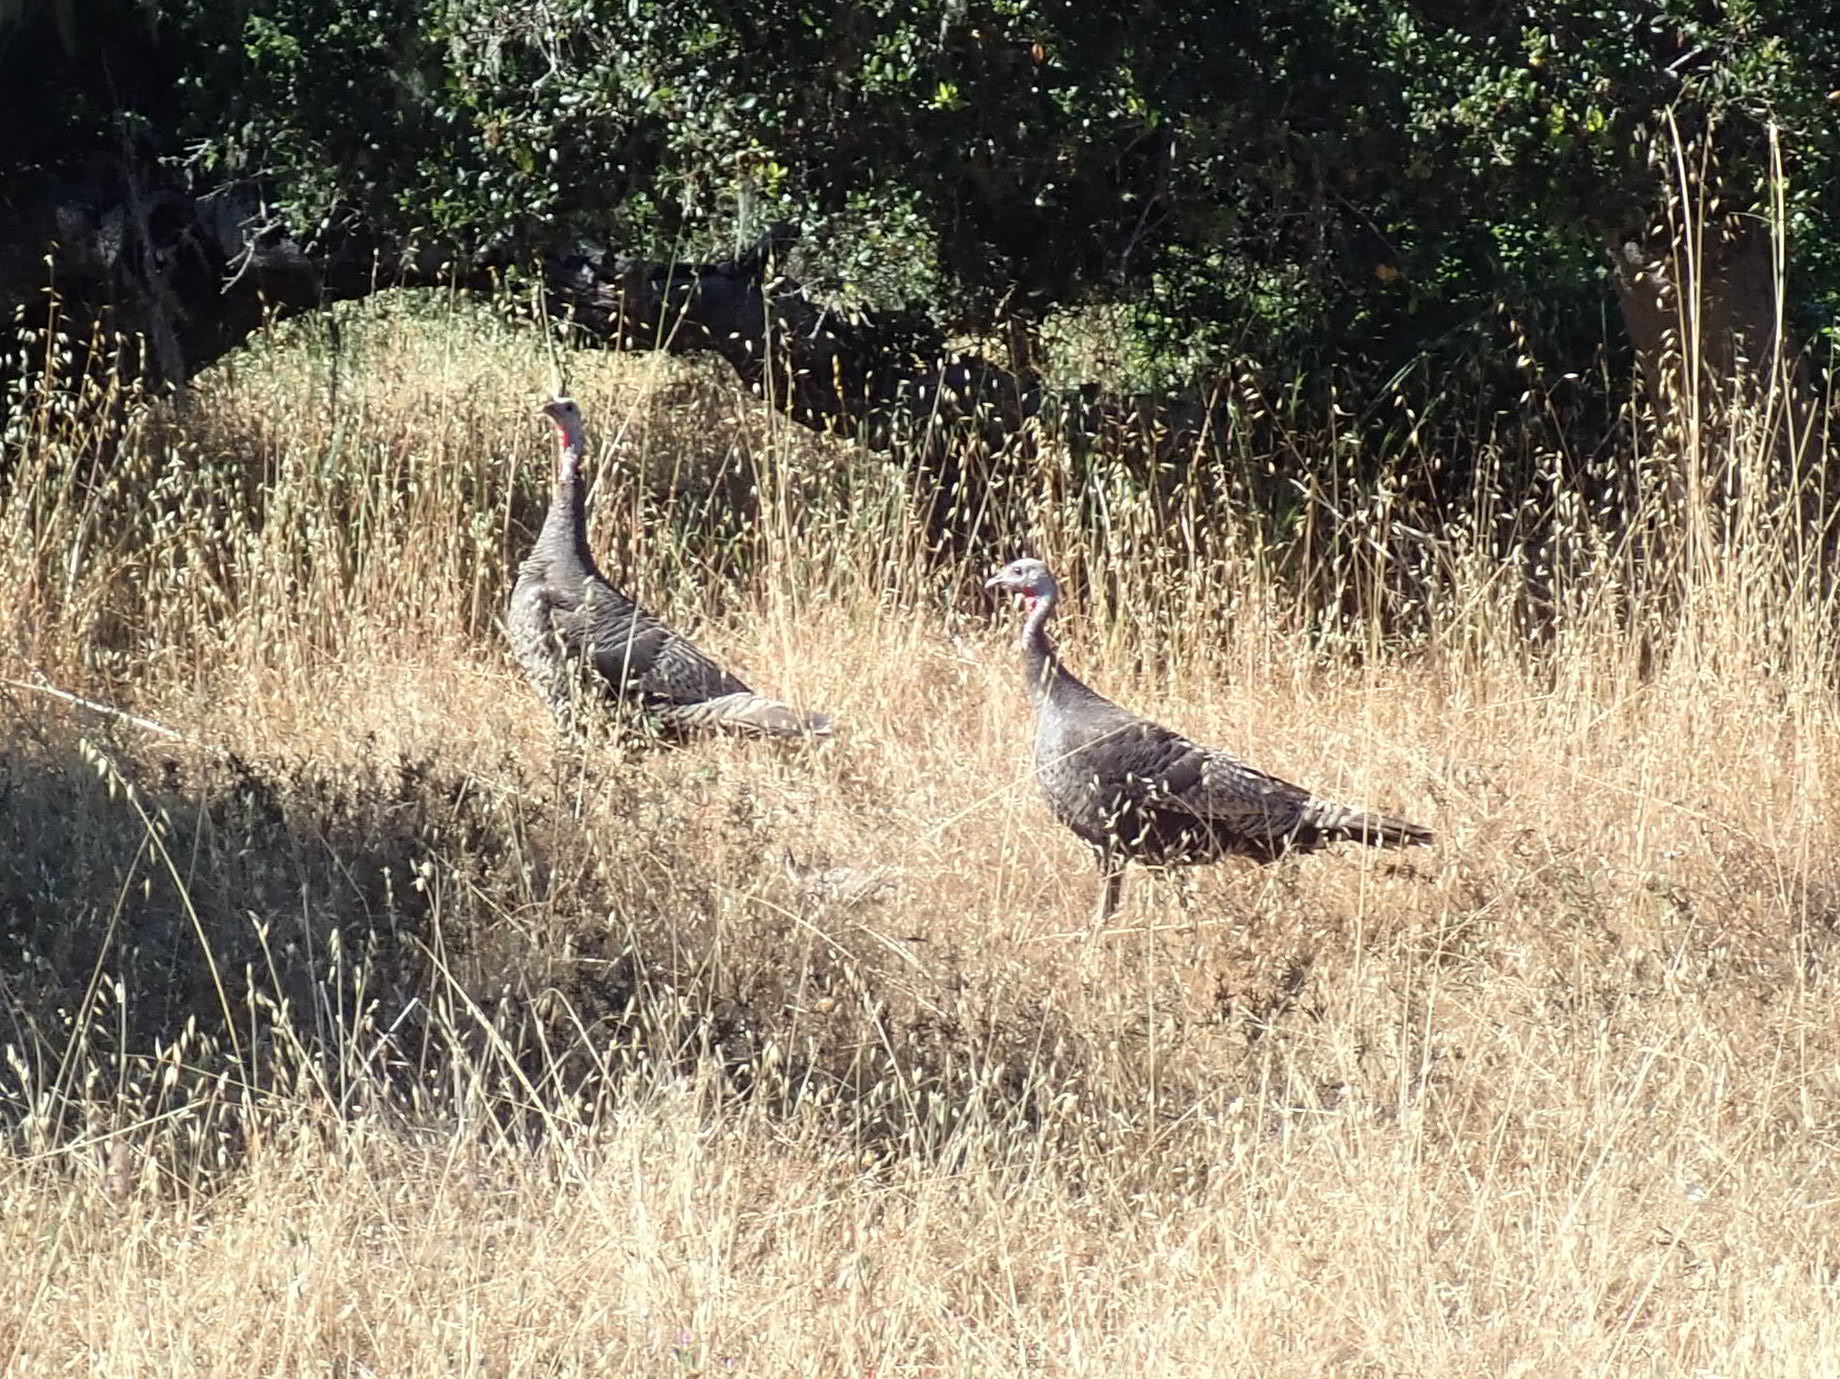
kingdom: Animalia
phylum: Chordata
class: Aves
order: Galliformes
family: Phasianidae
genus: Meleagris
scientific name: Meleagris gallopavo
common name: Wild turkey
